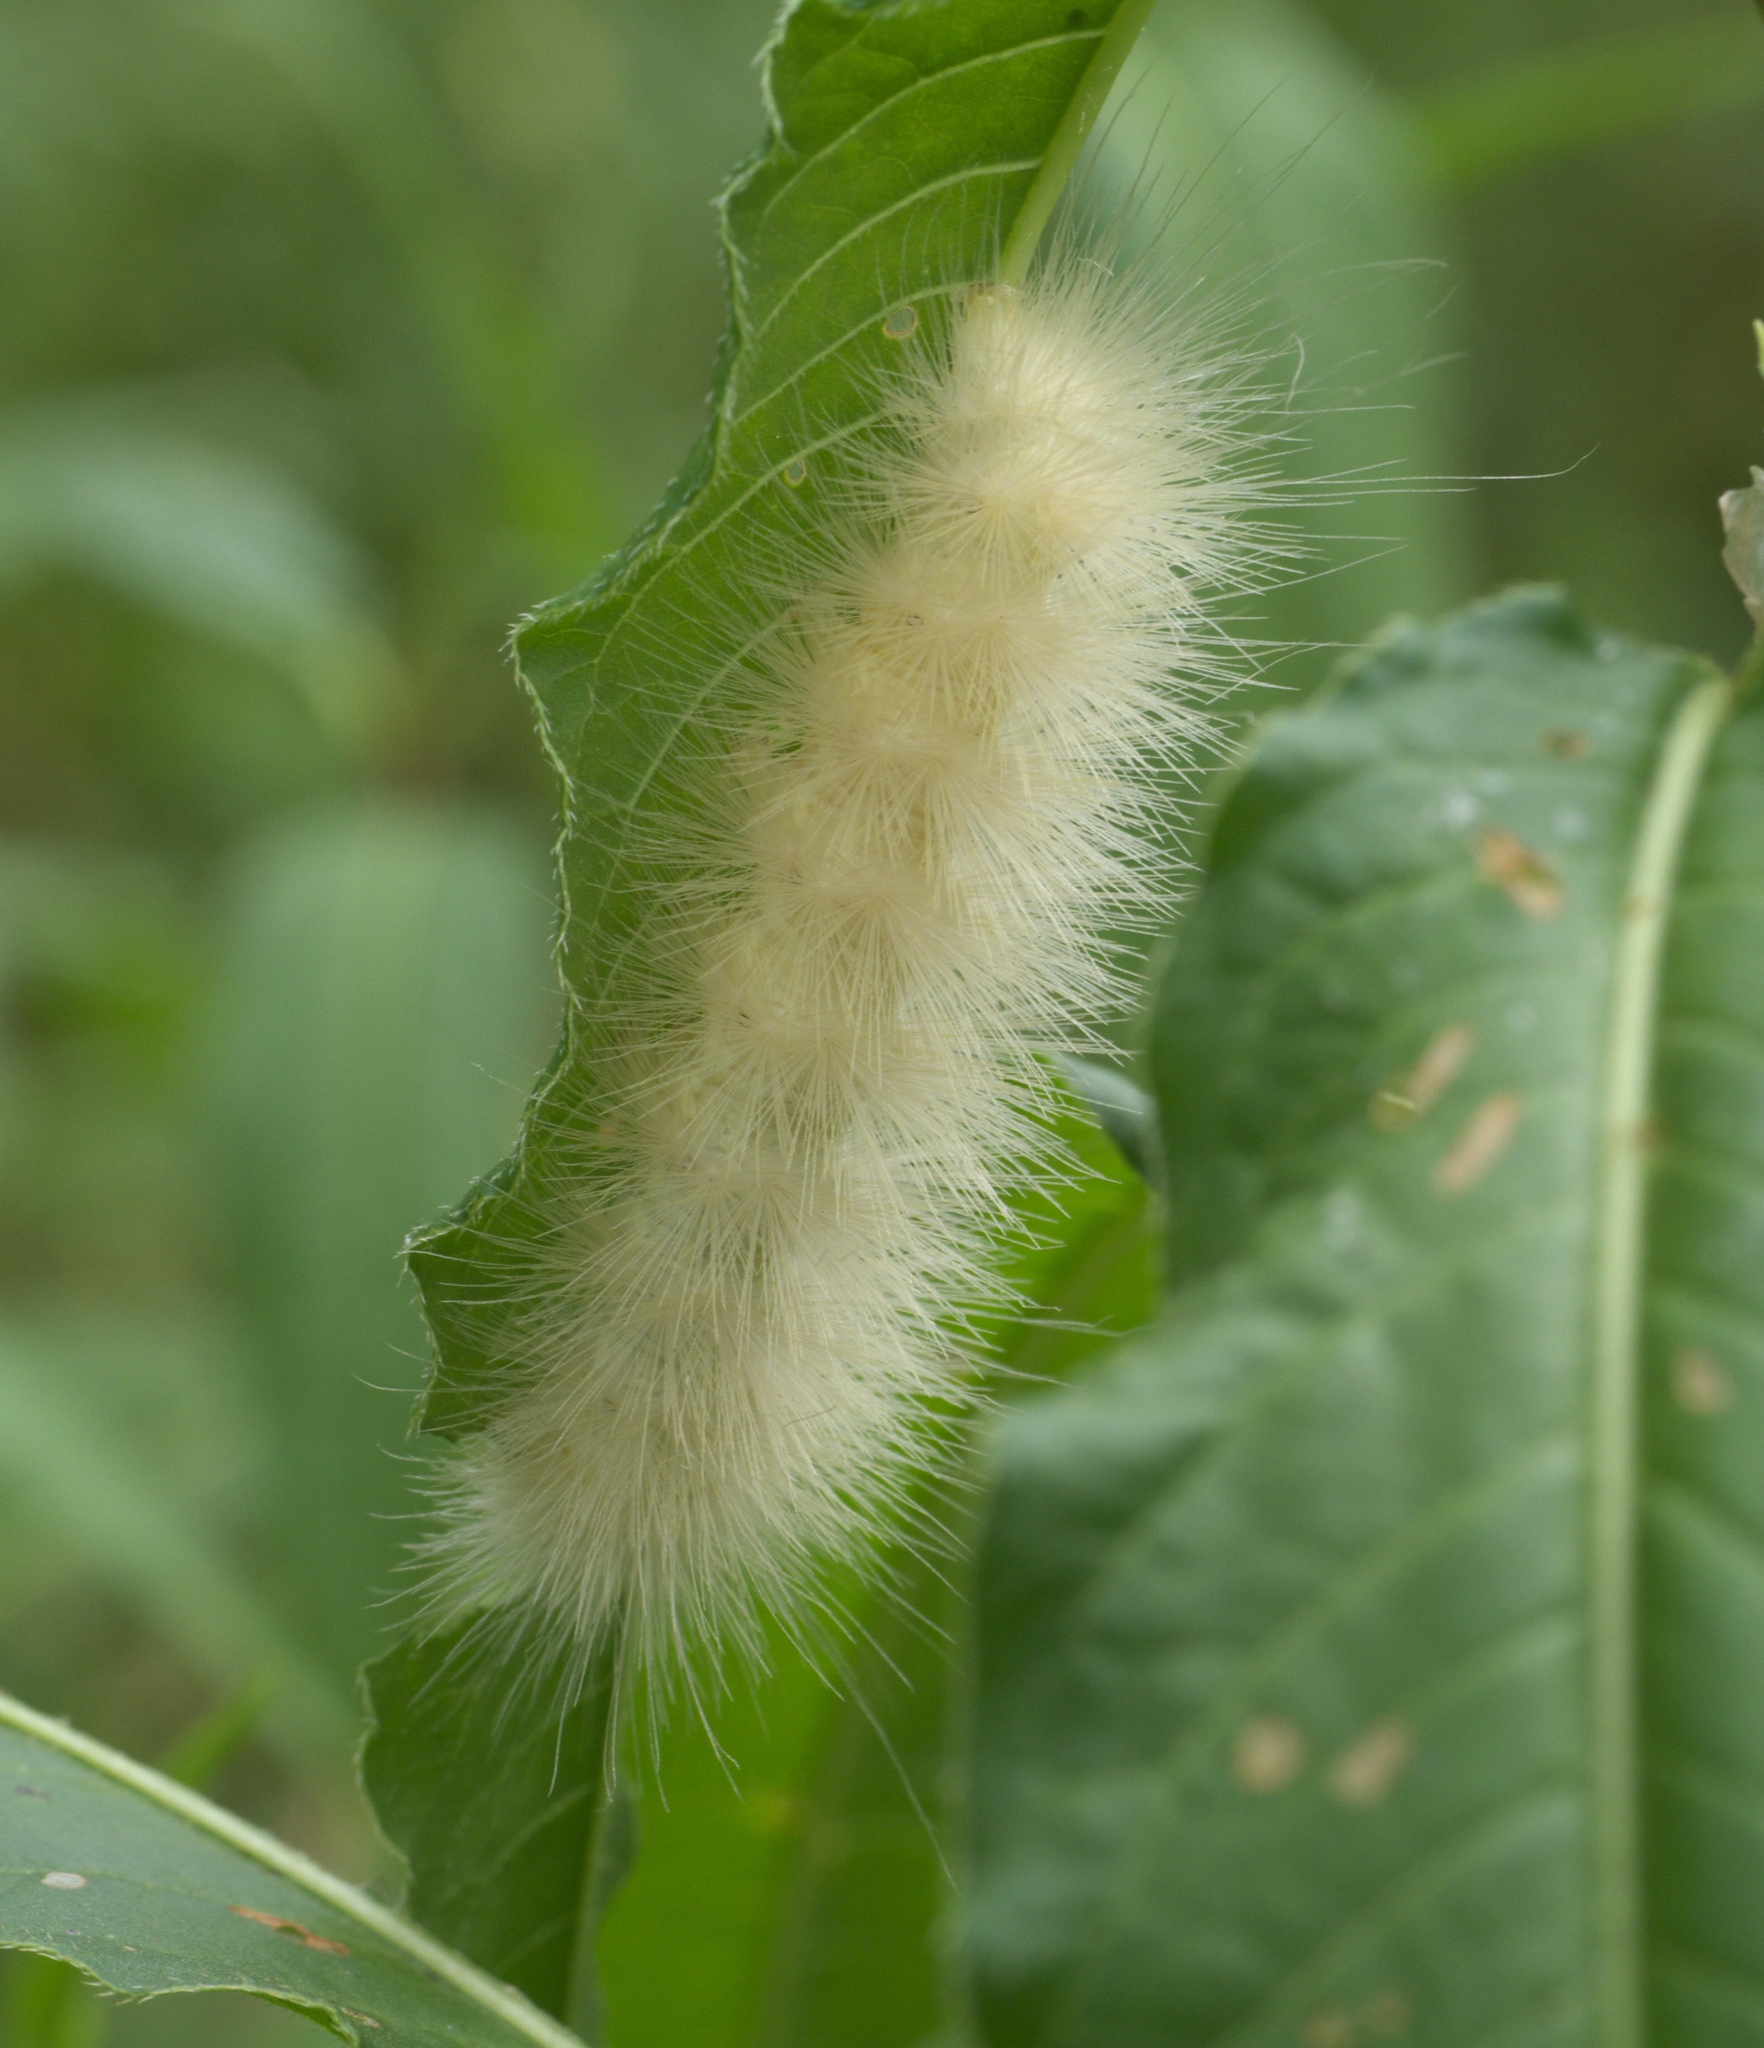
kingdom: Animalia
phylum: Arthropoda
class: Insecta
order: Lepidoptera
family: Erebidae
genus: Spilosoma
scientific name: Spilosoma virginica
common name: Virginia tiger moth
